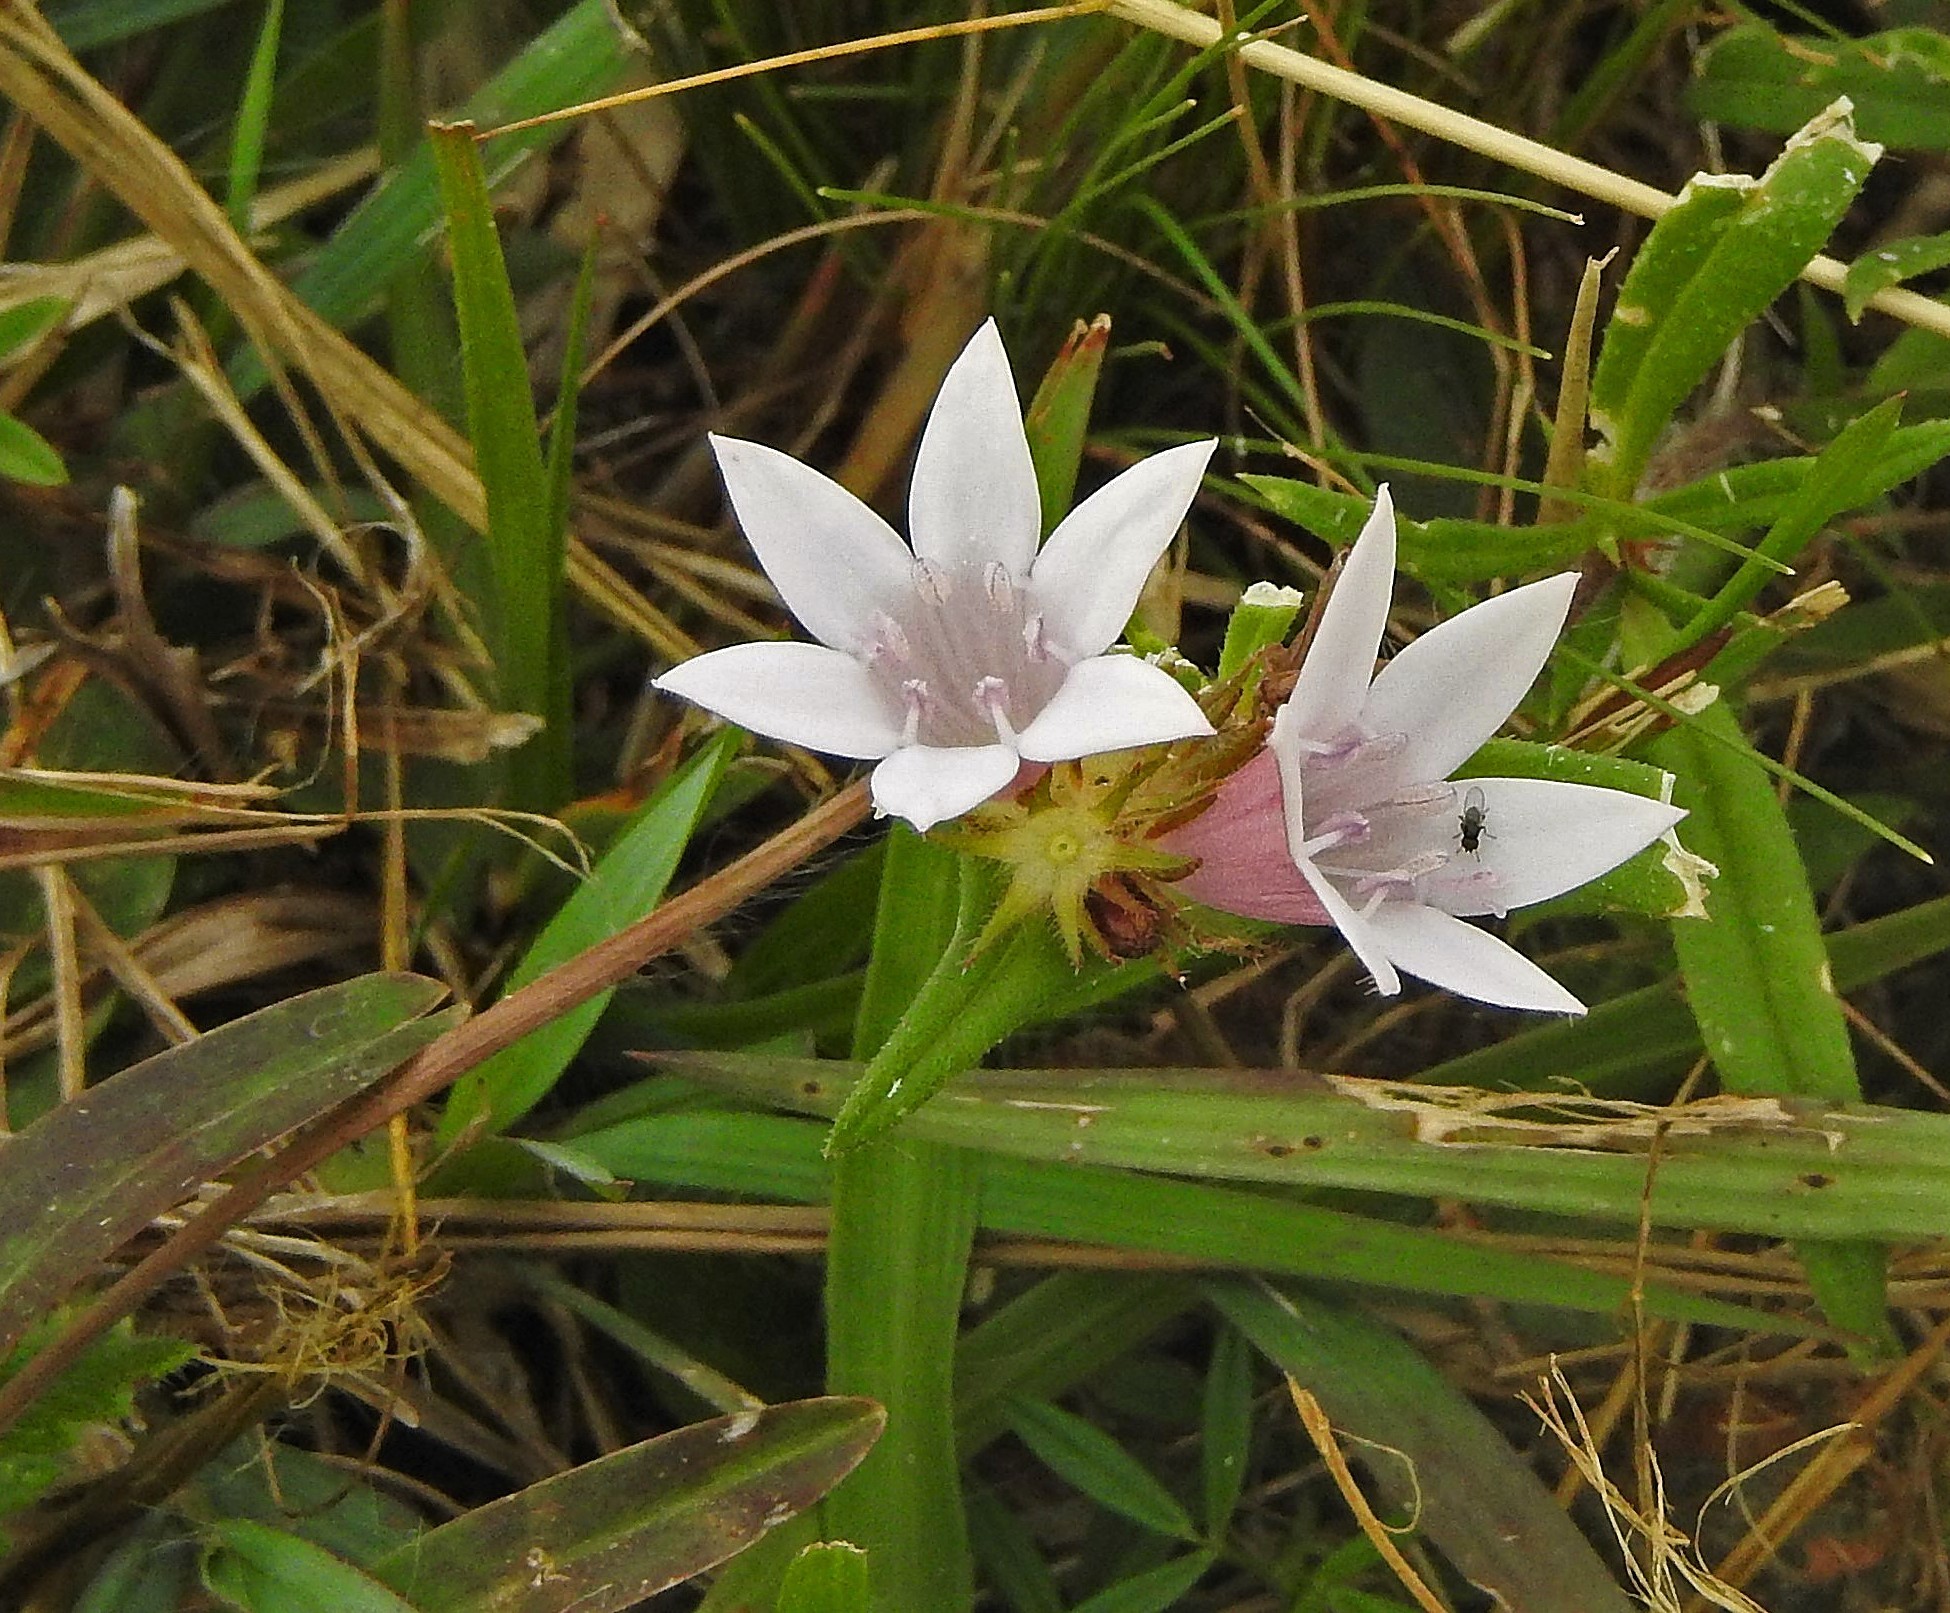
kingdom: Plantae
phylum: Tracheophyta
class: Magnoliopsida
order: Gentianales
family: Rubiaceae
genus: Richardia
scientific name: Richardia grandiflora
